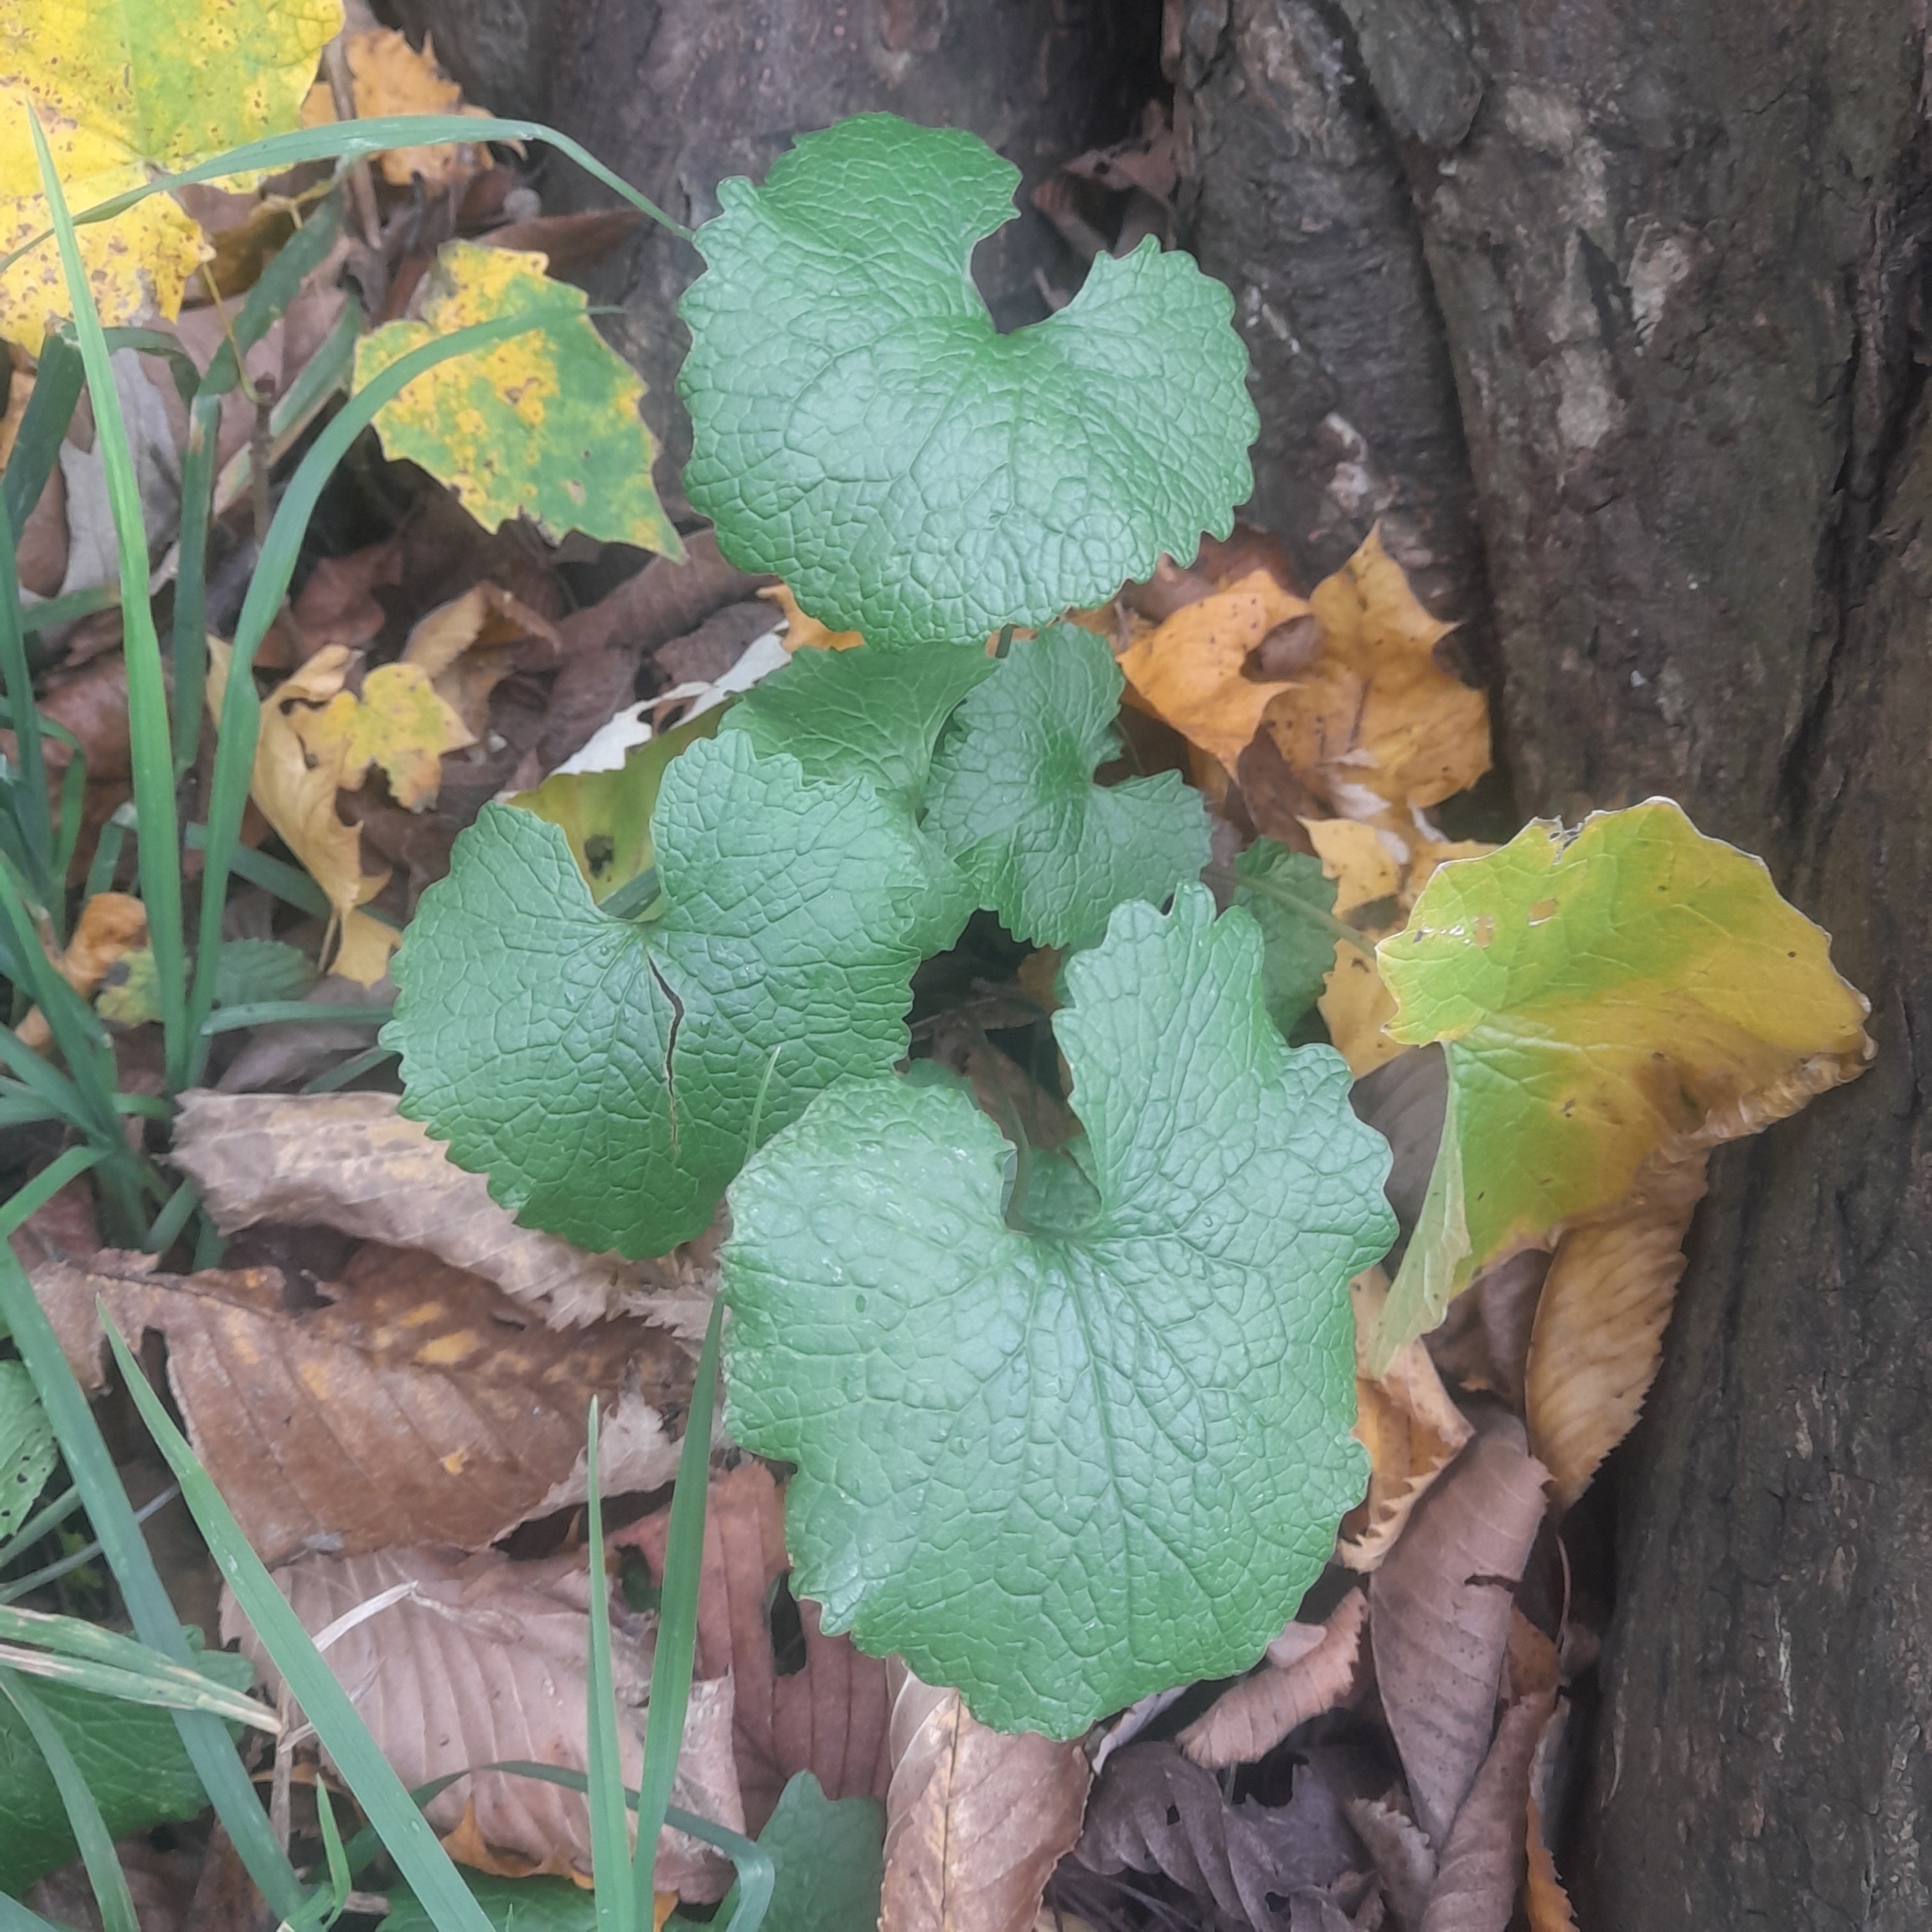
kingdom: Plantae
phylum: Tracheophyta
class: Magnoliopsida
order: Brassicales
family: Brassicaceae
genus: Alliaria
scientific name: Alliaria petiolata
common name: Garlic mustard
